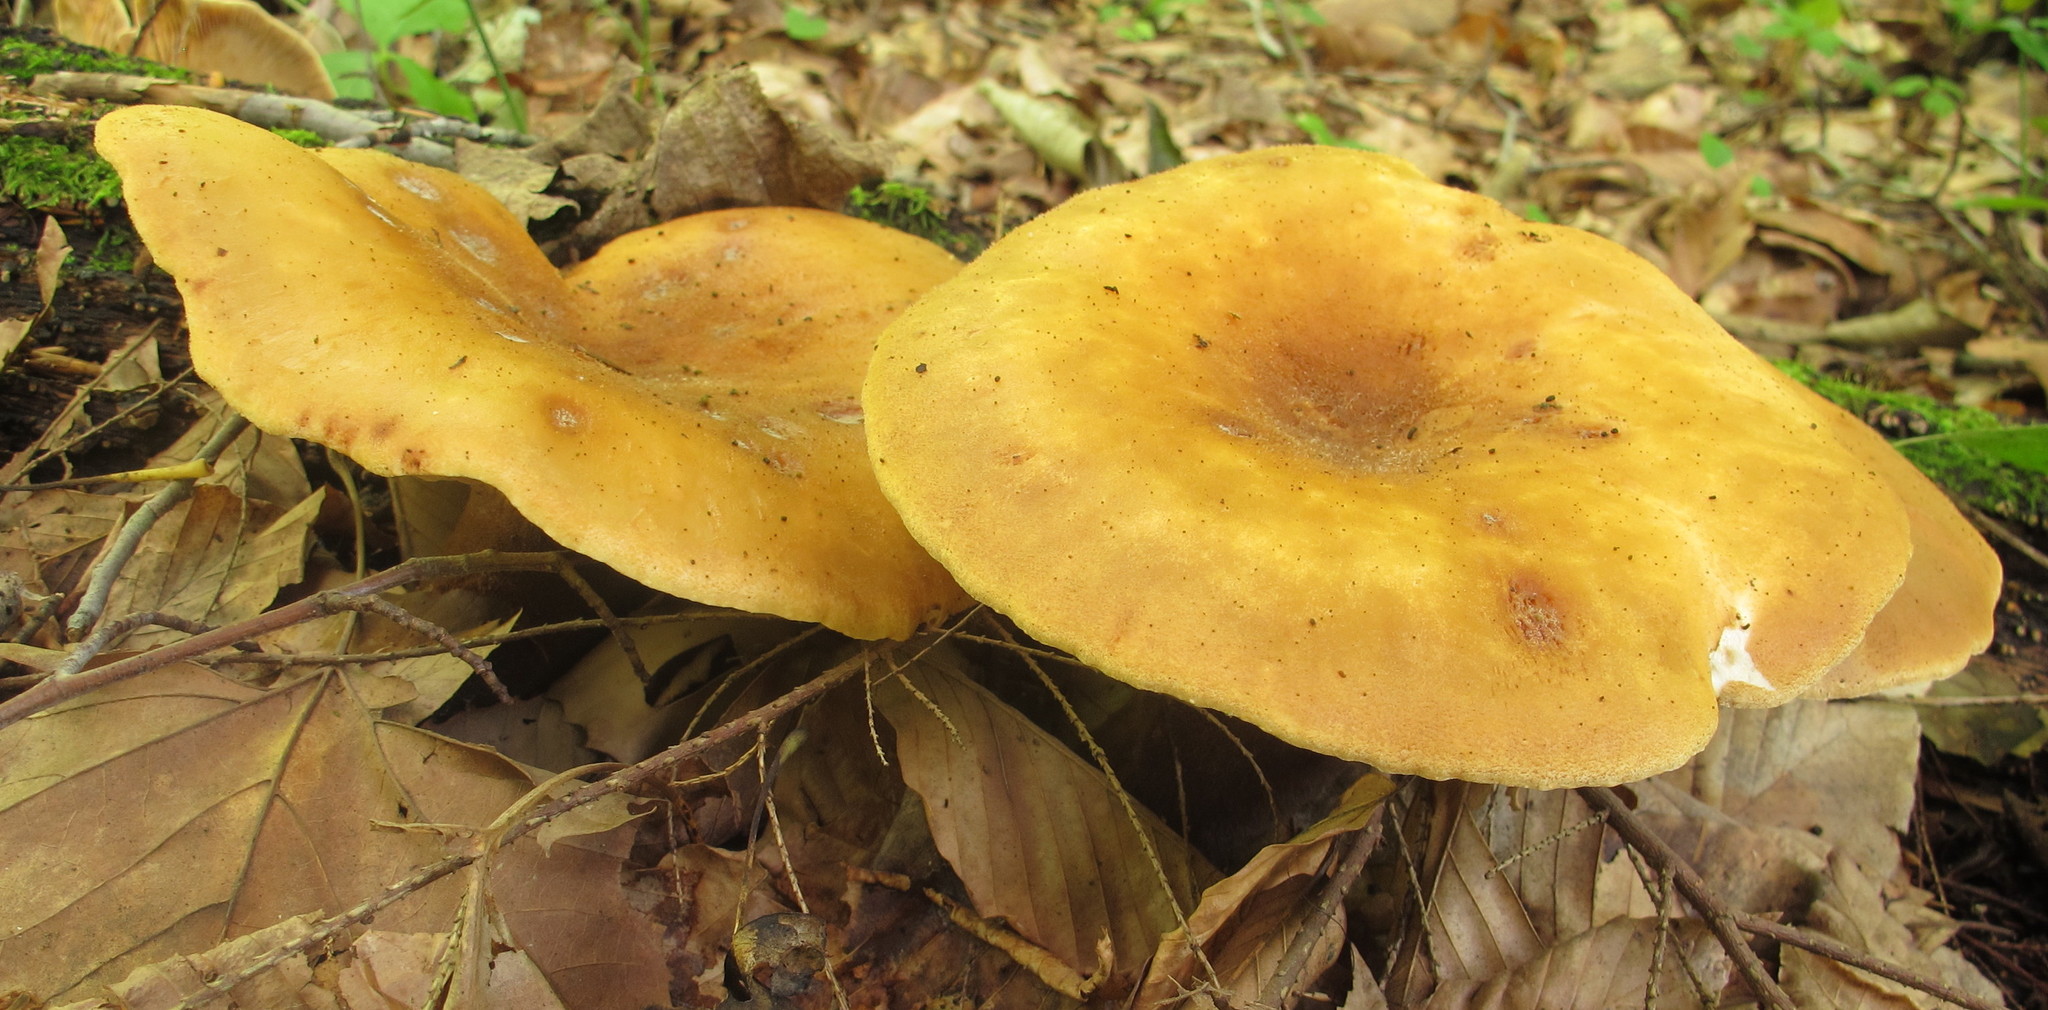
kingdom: Fungi
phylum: Basidiomycota
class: Agaricomycetes
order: Boletales
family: Tapinellaceae
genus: Tapinella
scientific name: Tapinella atrotomentosa
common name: Velvet rollrim
